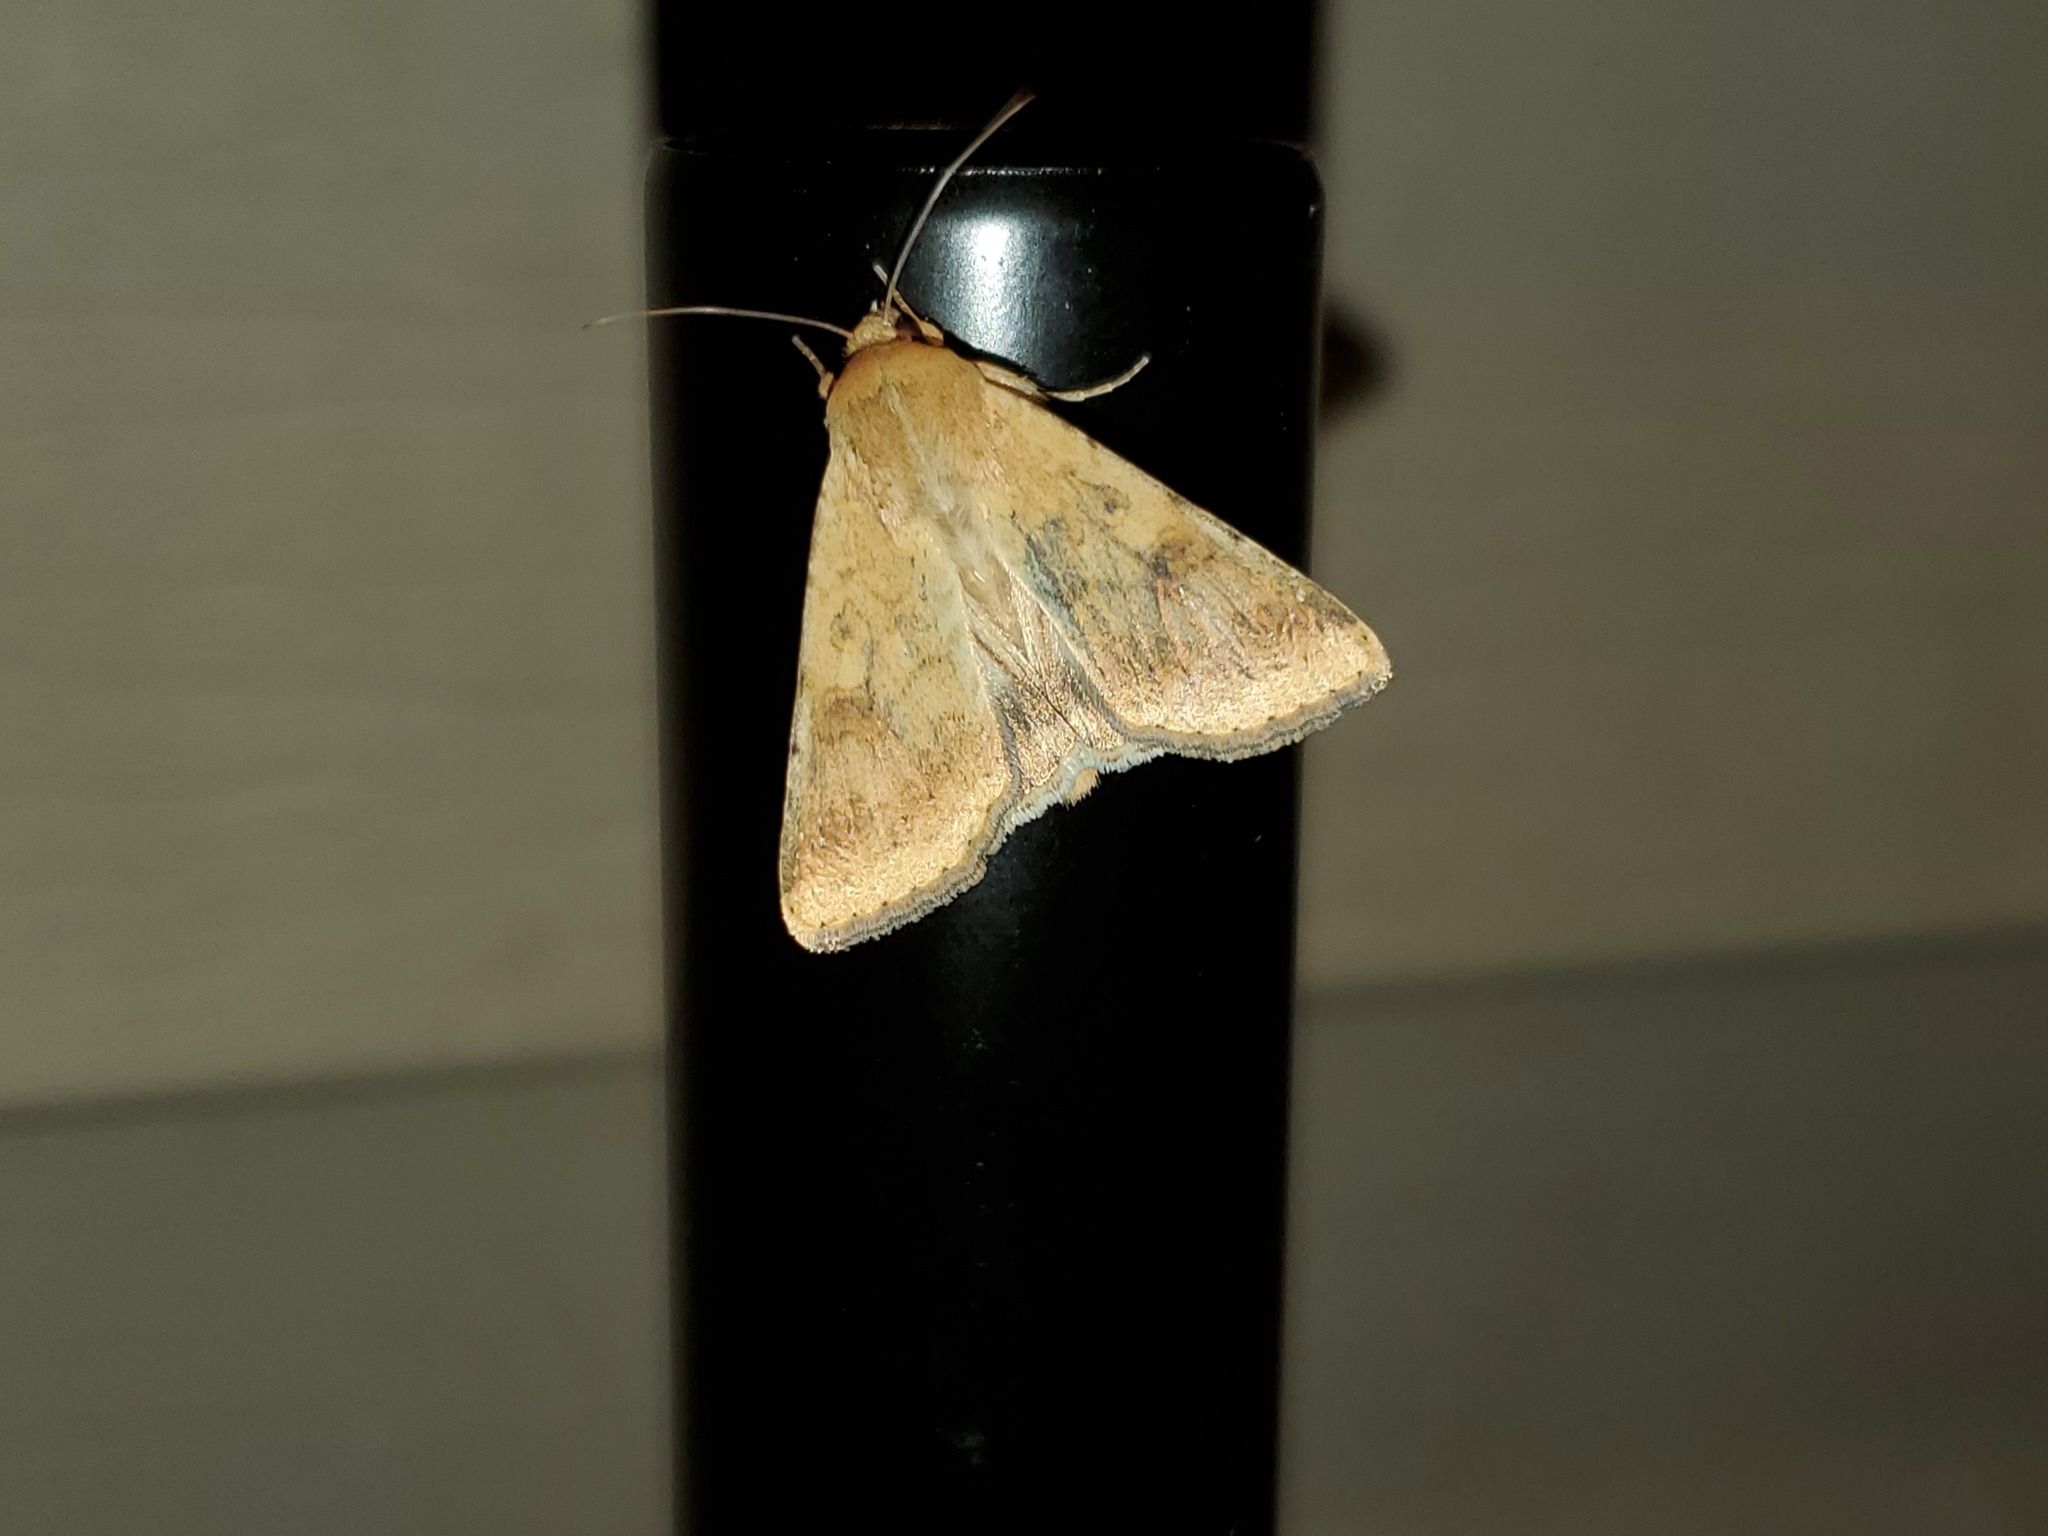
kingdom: Animalia
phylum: Arthropoda
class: Insecta
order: Lepidoptera
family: Noctuidae
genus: Helicoverpa
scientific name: Helicoverpa zea
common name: Bollworm
